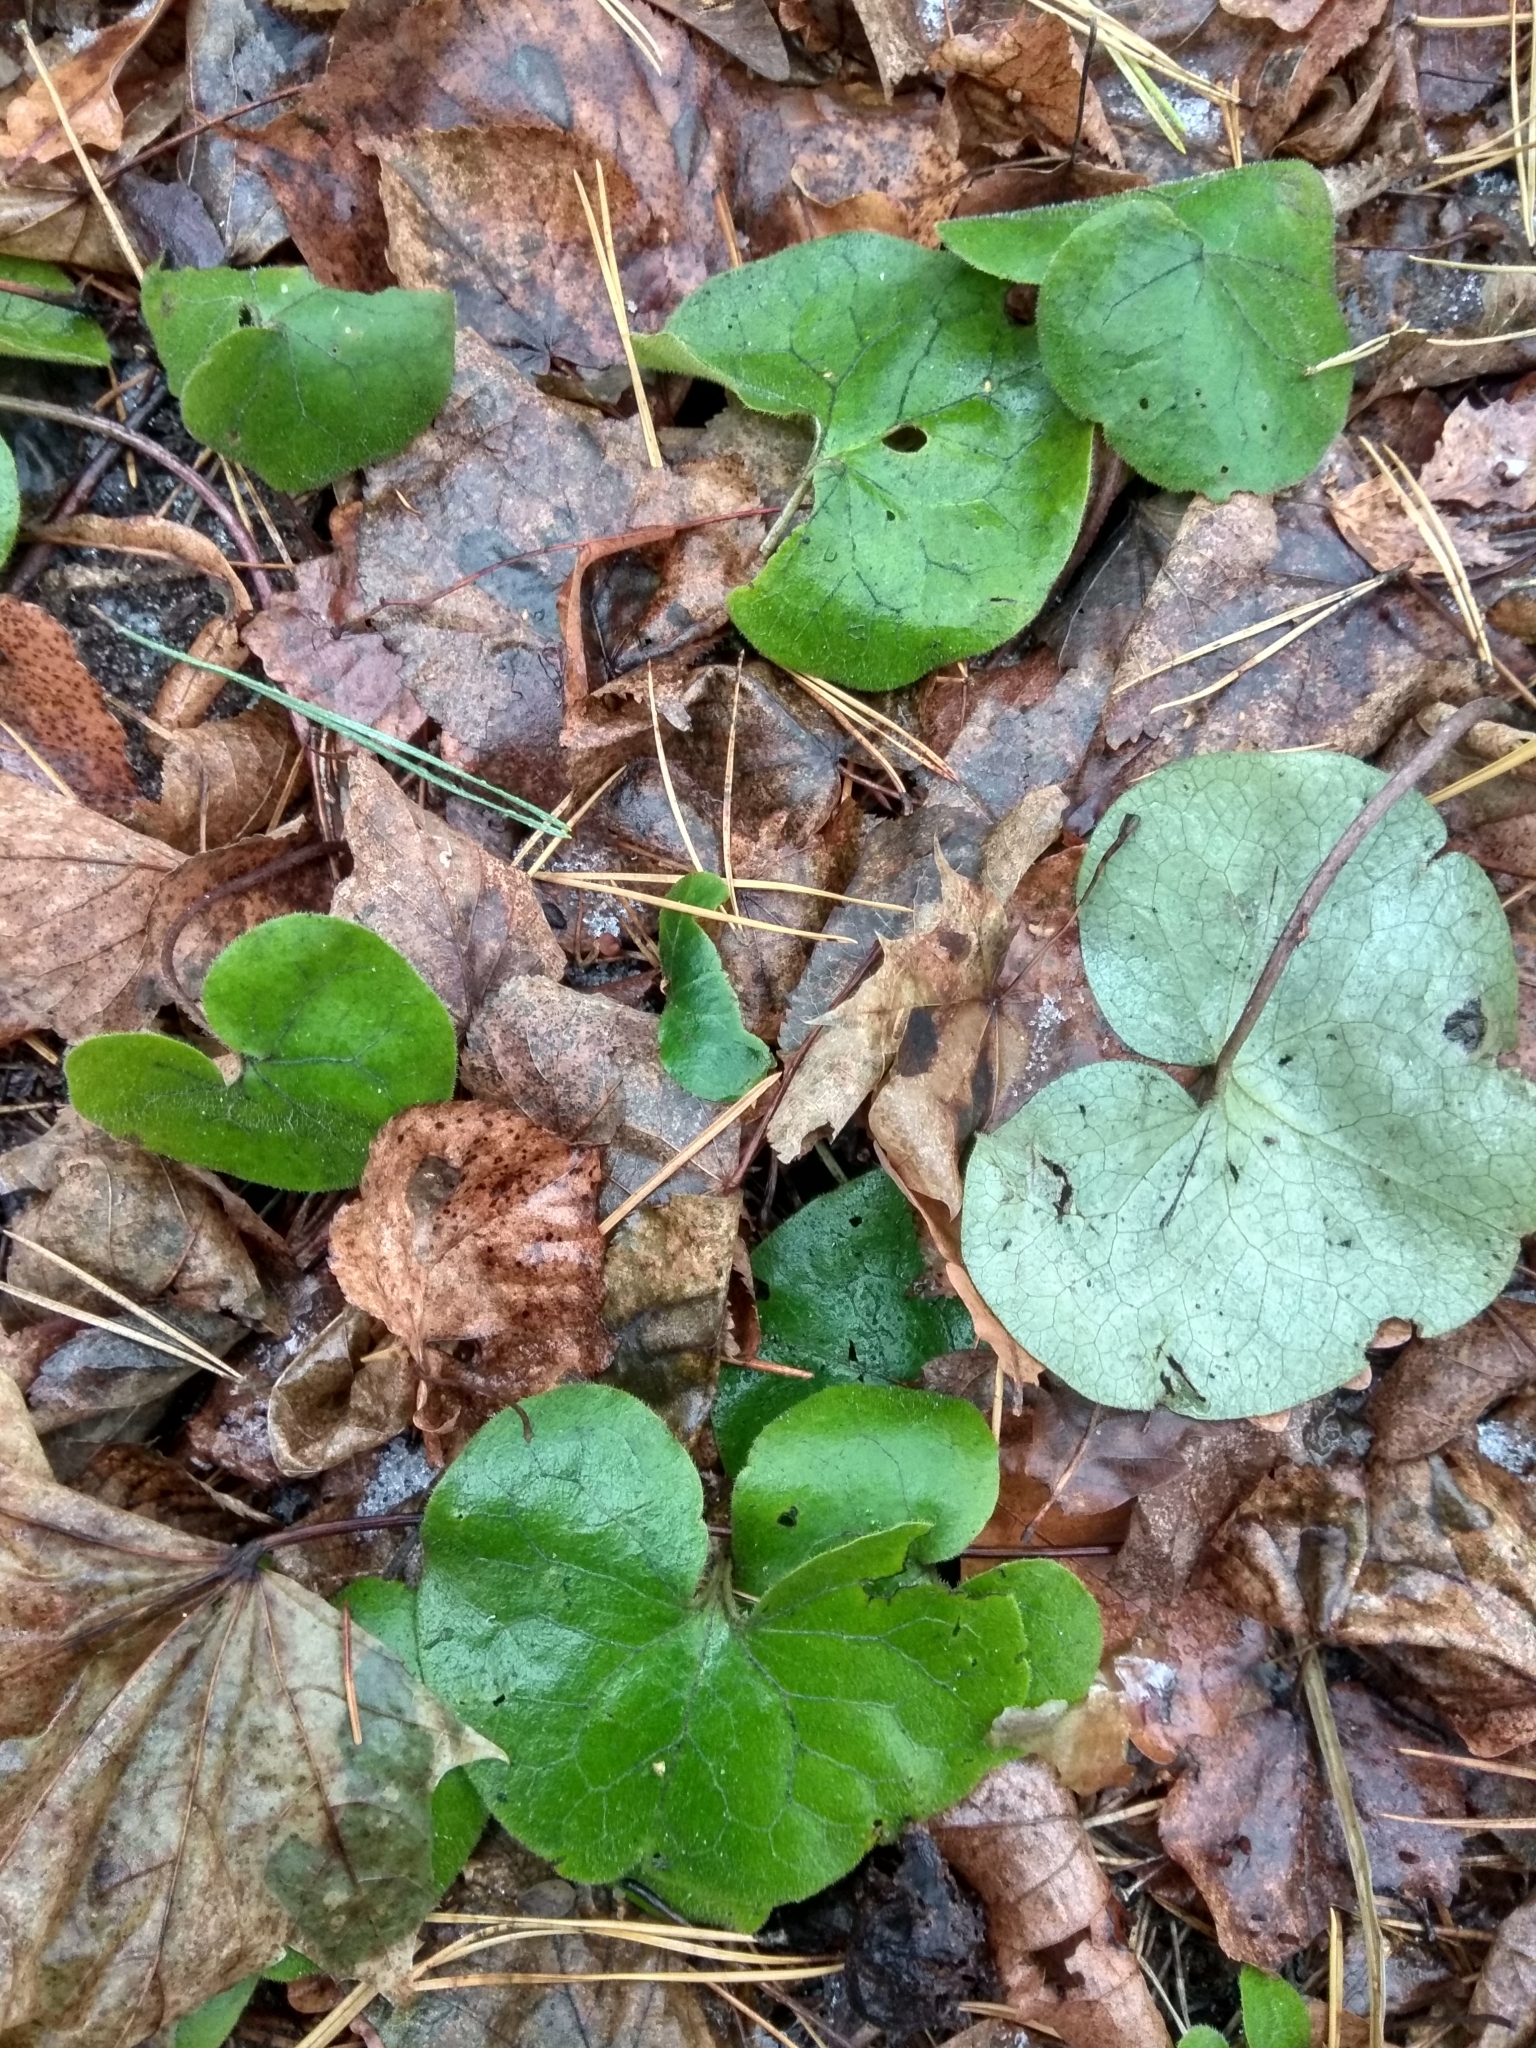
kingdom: Plantae
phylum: Tracheophyta
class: Magnoliopsida
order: Piperales
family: Aristolochiaceae
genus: Asarum
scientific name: Asarum europaeum
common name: Asarabacca
